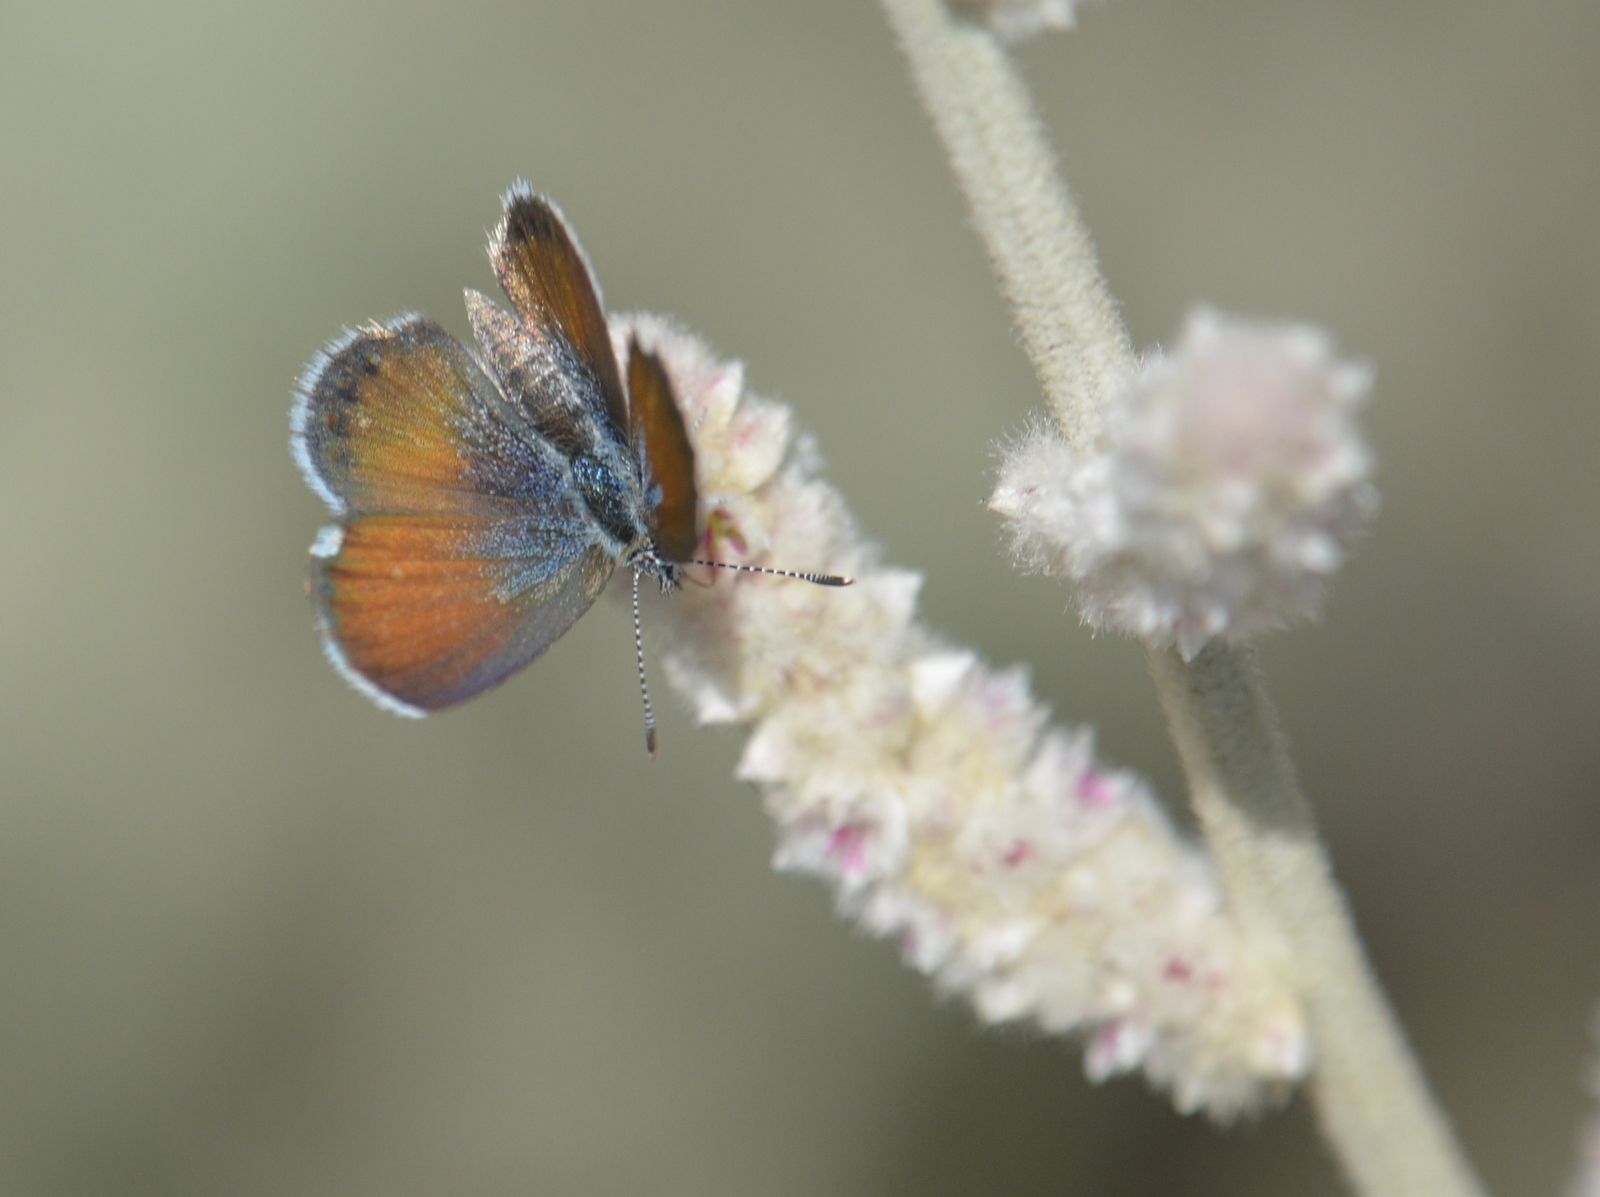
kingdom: Animalia
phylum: Arthropoda
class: Insecta
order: Lepidoptera
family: Lycaenidae
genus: Brephidium
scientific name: Brephidium exilis
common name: Pygmy blue
